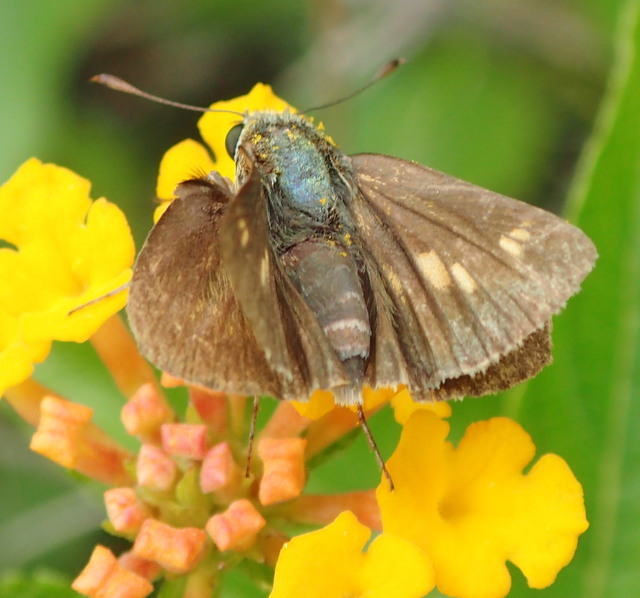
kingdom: Animalia
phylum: Arthropoda
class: Insecta
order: Lepidoptera
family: Hesperiidae
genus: Euphyes
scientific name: Euphyes dion
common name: Dion skipper
